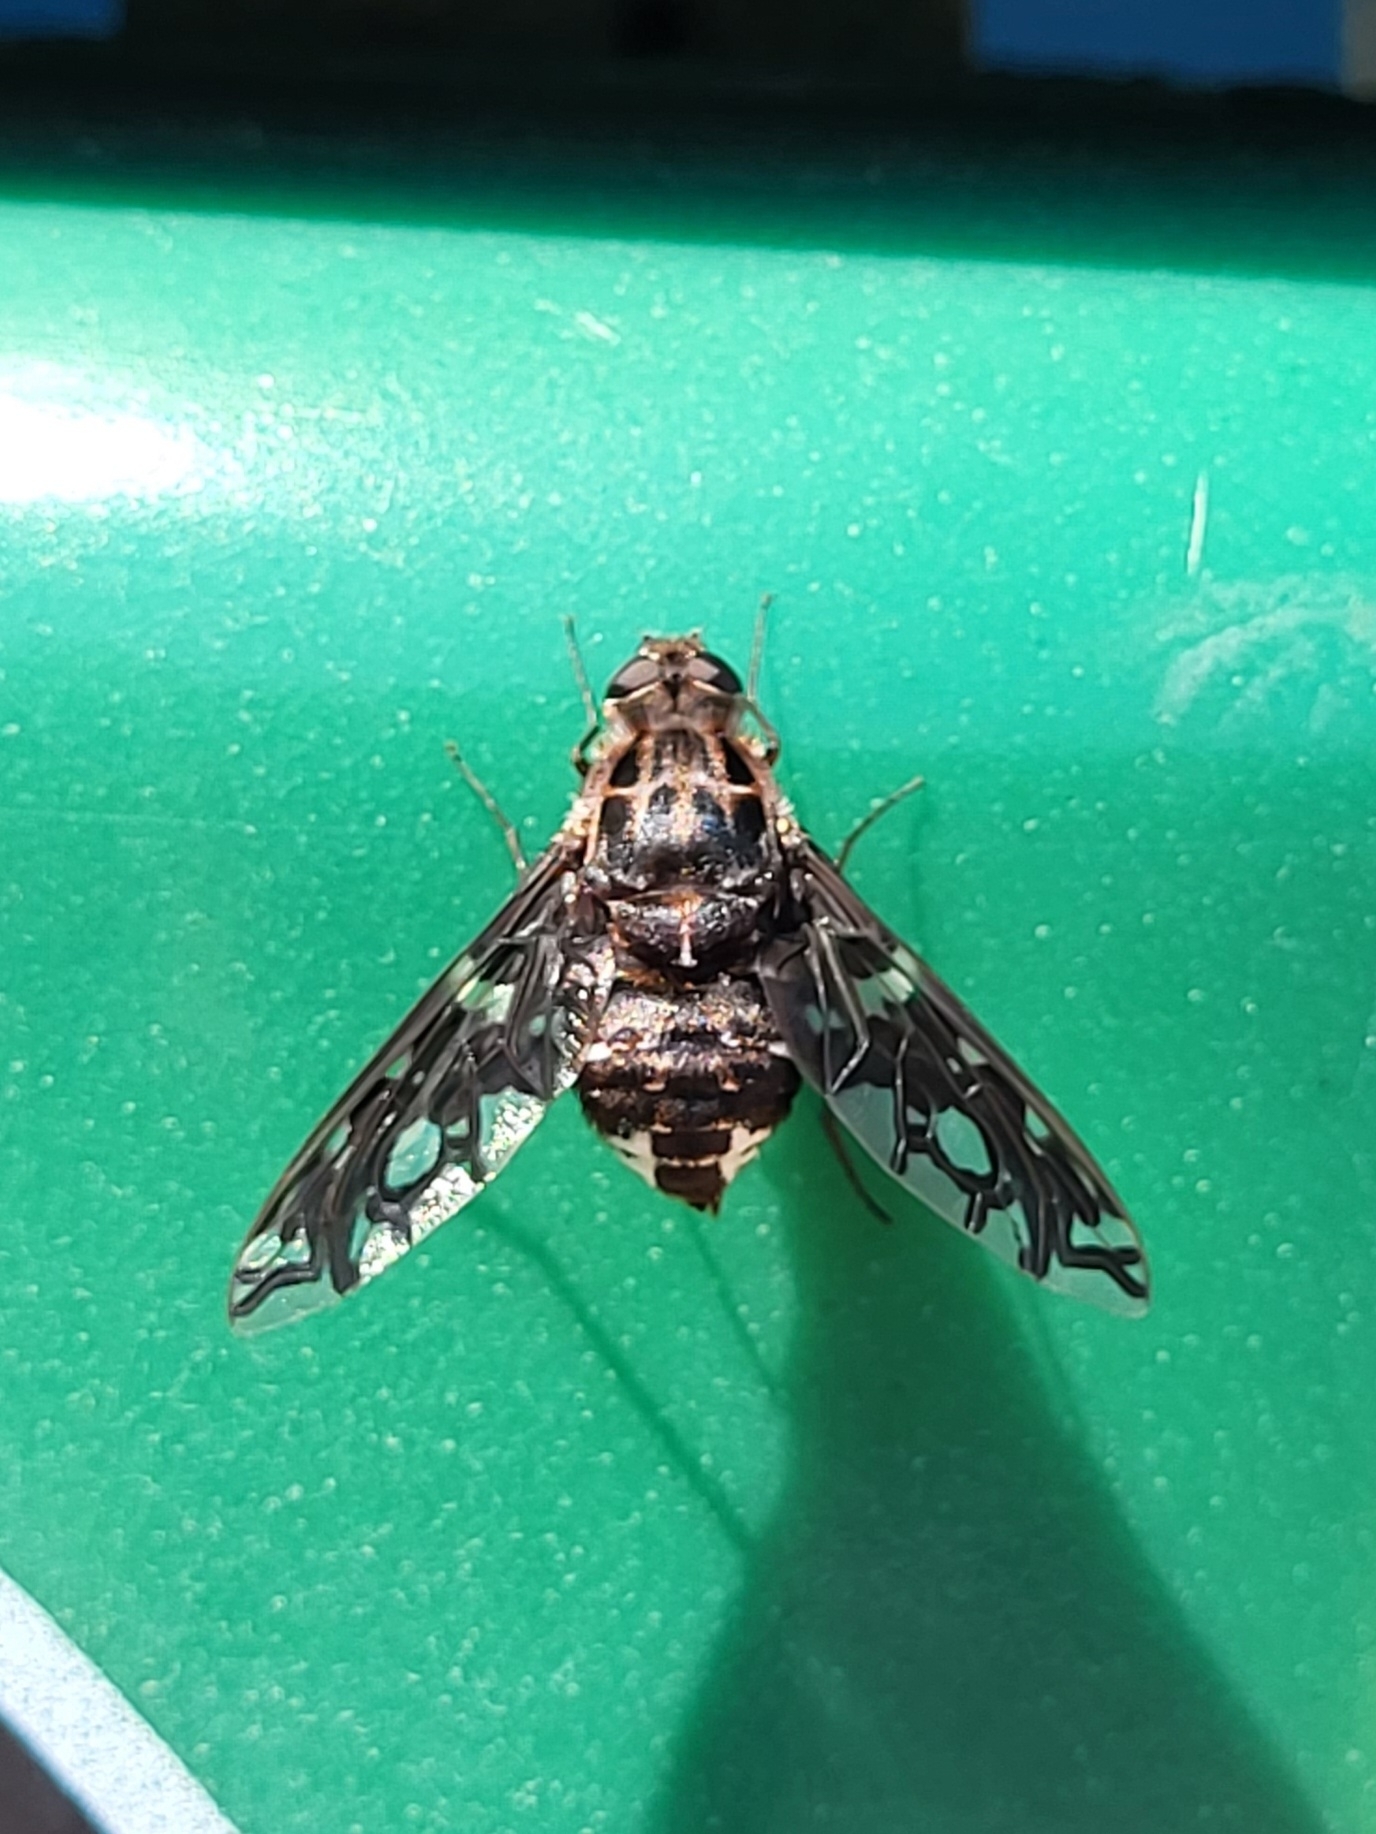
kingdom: Animalia
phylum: Arthropoda
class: Insecta
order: Diptera
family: Bombyliidae
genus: Xenox
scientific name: Xenox tigrinus
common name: Tiger bee fly
